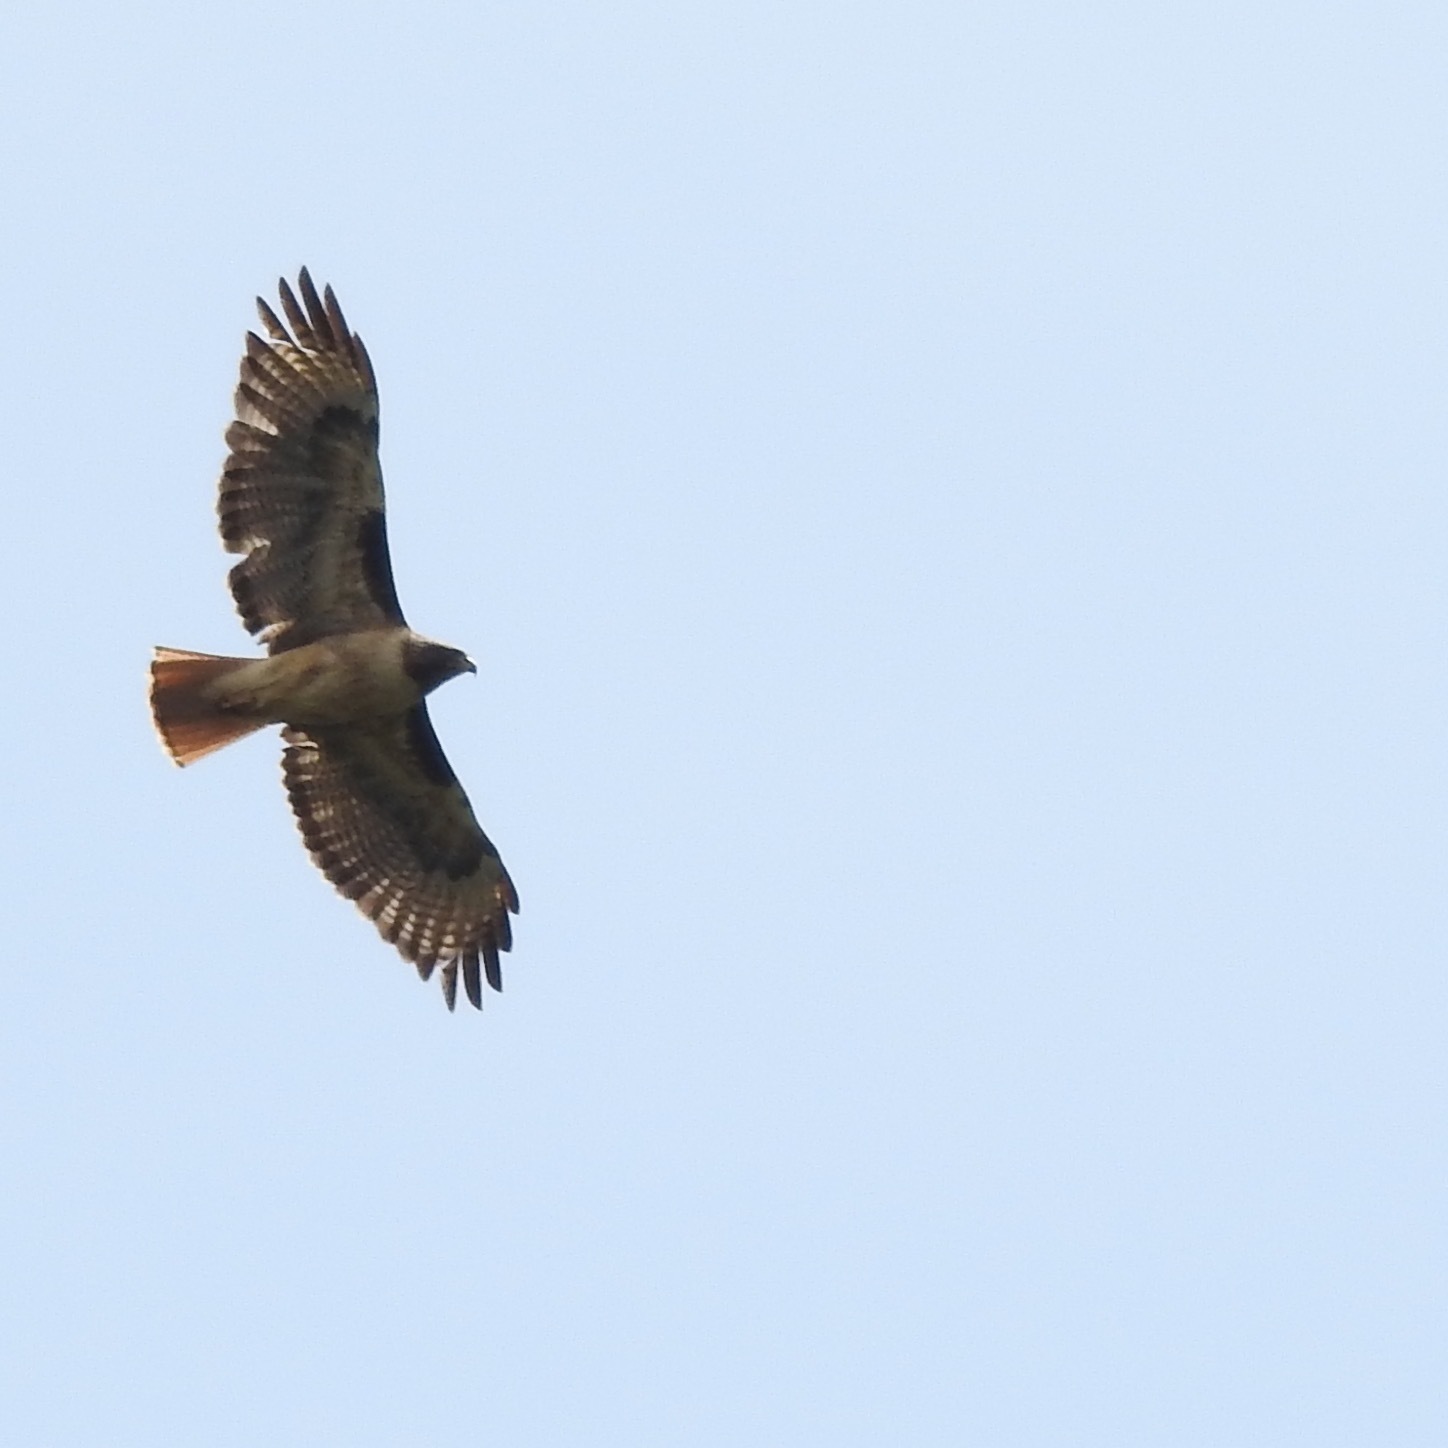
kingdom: Animalia
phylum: Chordata
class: Aves
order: Accipitriformes
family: Accipitridae
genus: Buteo
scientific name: Buteo jamaicensis
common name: Red-tailed hawk
